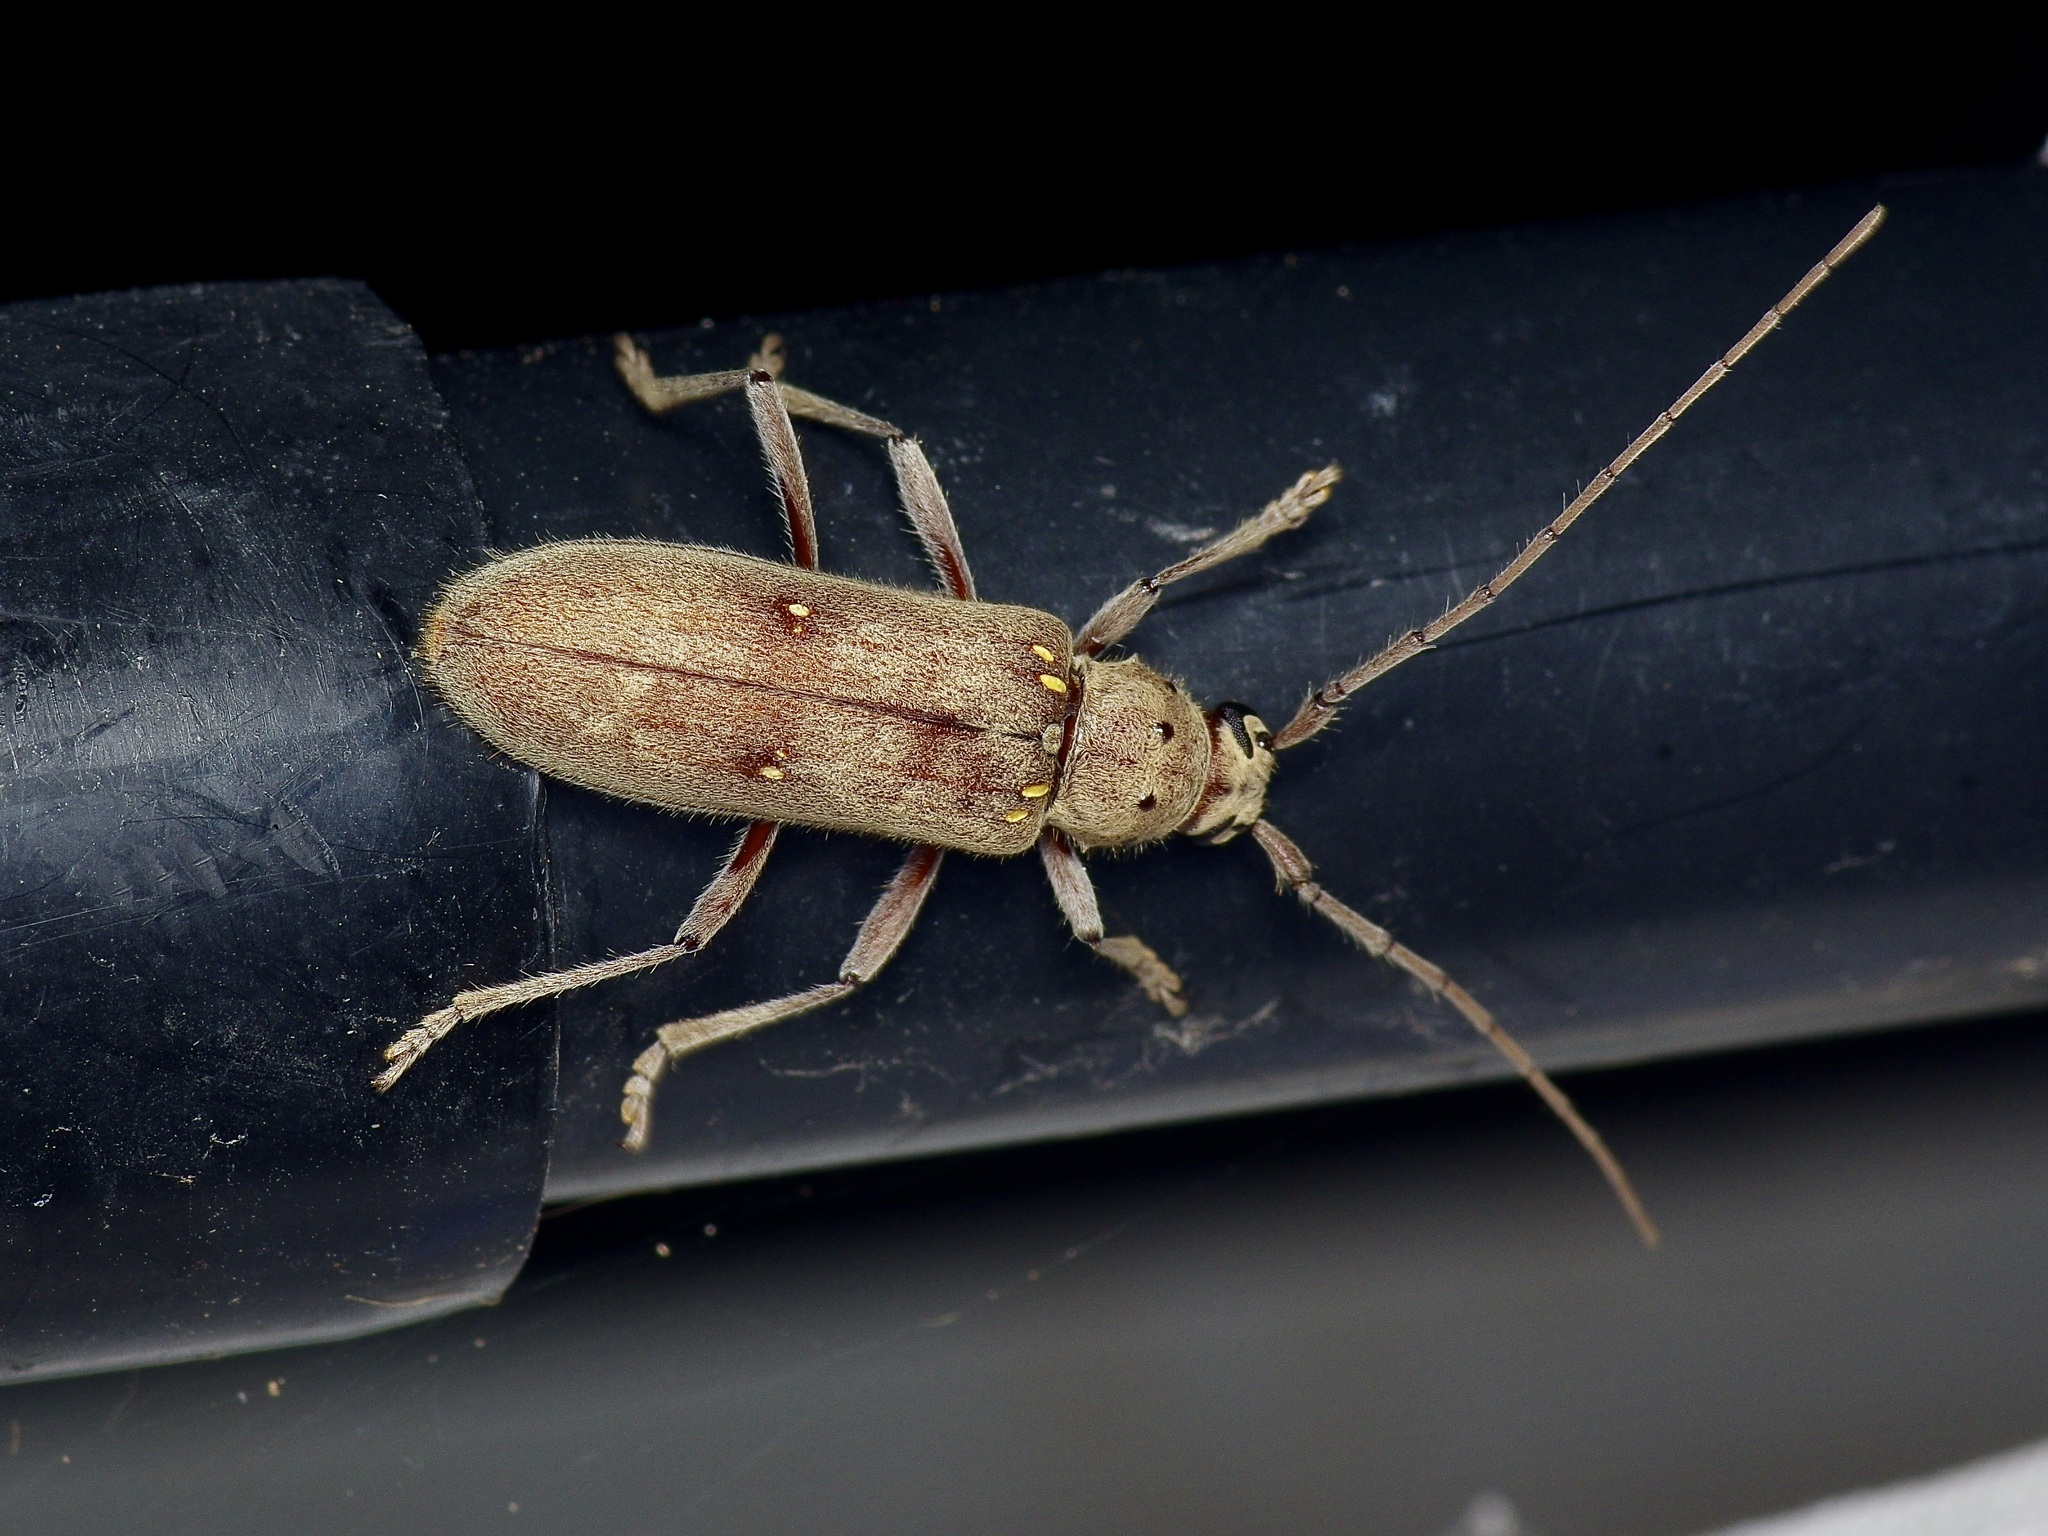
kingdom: Animalia
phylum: Arthropoda
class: Insecta
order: Coleoptera
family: Cerambycidae
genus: Eburia
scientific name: Eburia mutica
